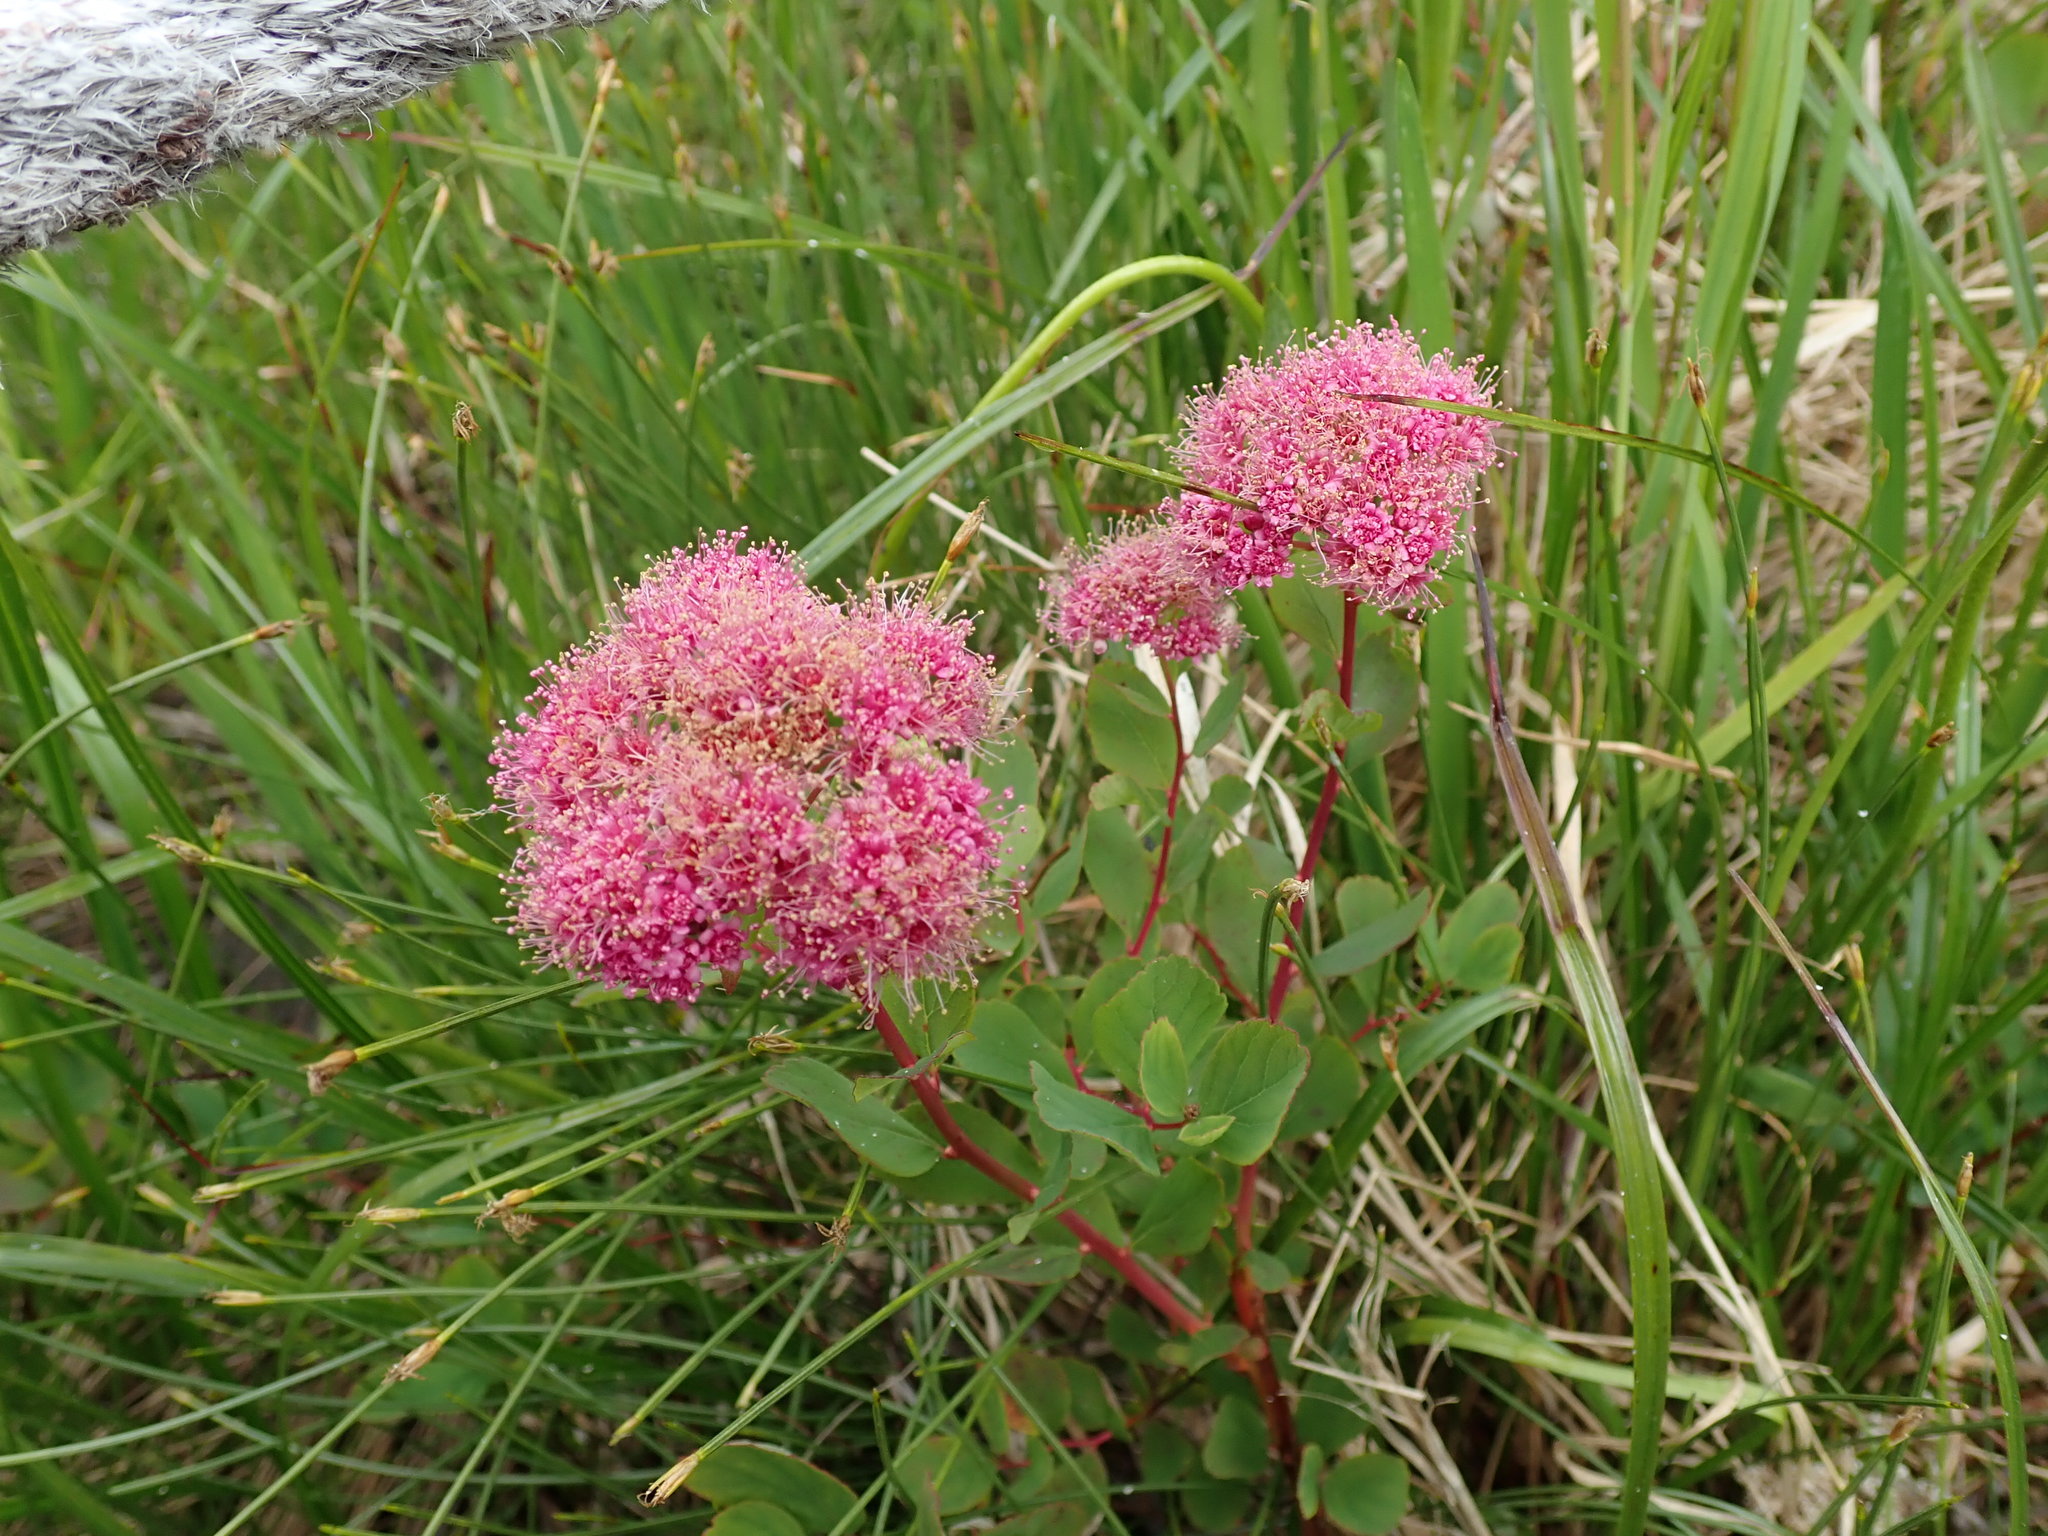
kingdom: Plantae
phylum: Tracheophyta
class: Magnoliopsida
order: Rosales
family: Rosaceae
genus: Spiraea
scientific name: Spiraea splendens
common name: Subalpine meadowsweet
